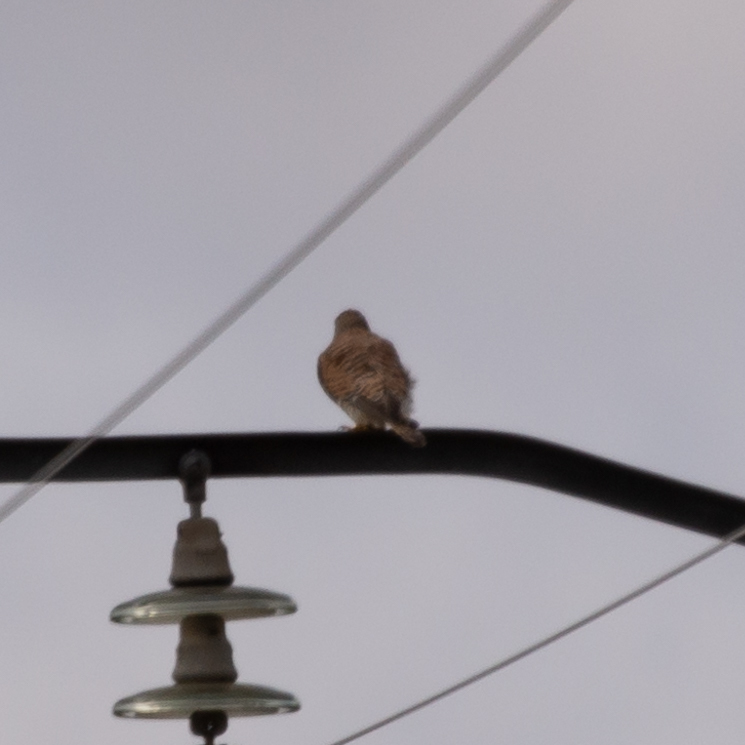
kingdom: Animalia
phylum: Chordata
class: Aves
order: Falconiformes
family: Falconidae
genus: Falco
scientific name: Falco tinnunculus
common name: Common kestrel
